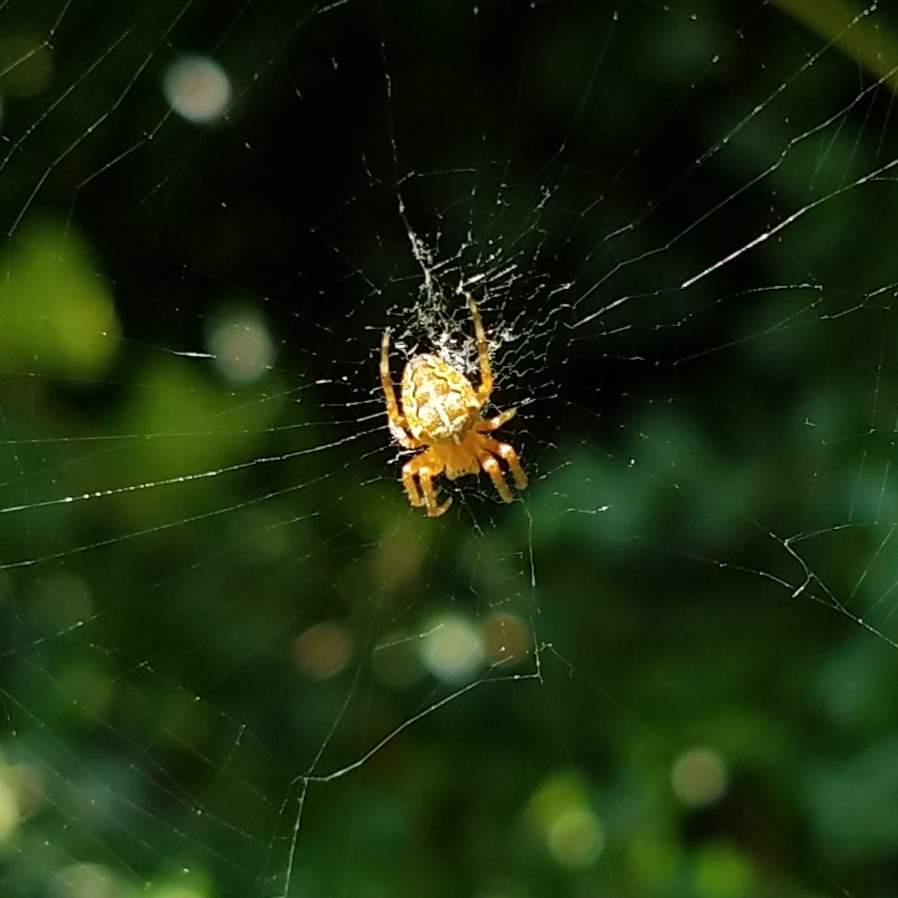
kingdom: Animalia
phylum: Arthropoda
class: Arachnida
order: Araneae
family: Araneidae
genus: Araneus
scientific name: Araneus diadematus
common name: Cross orbweaver
